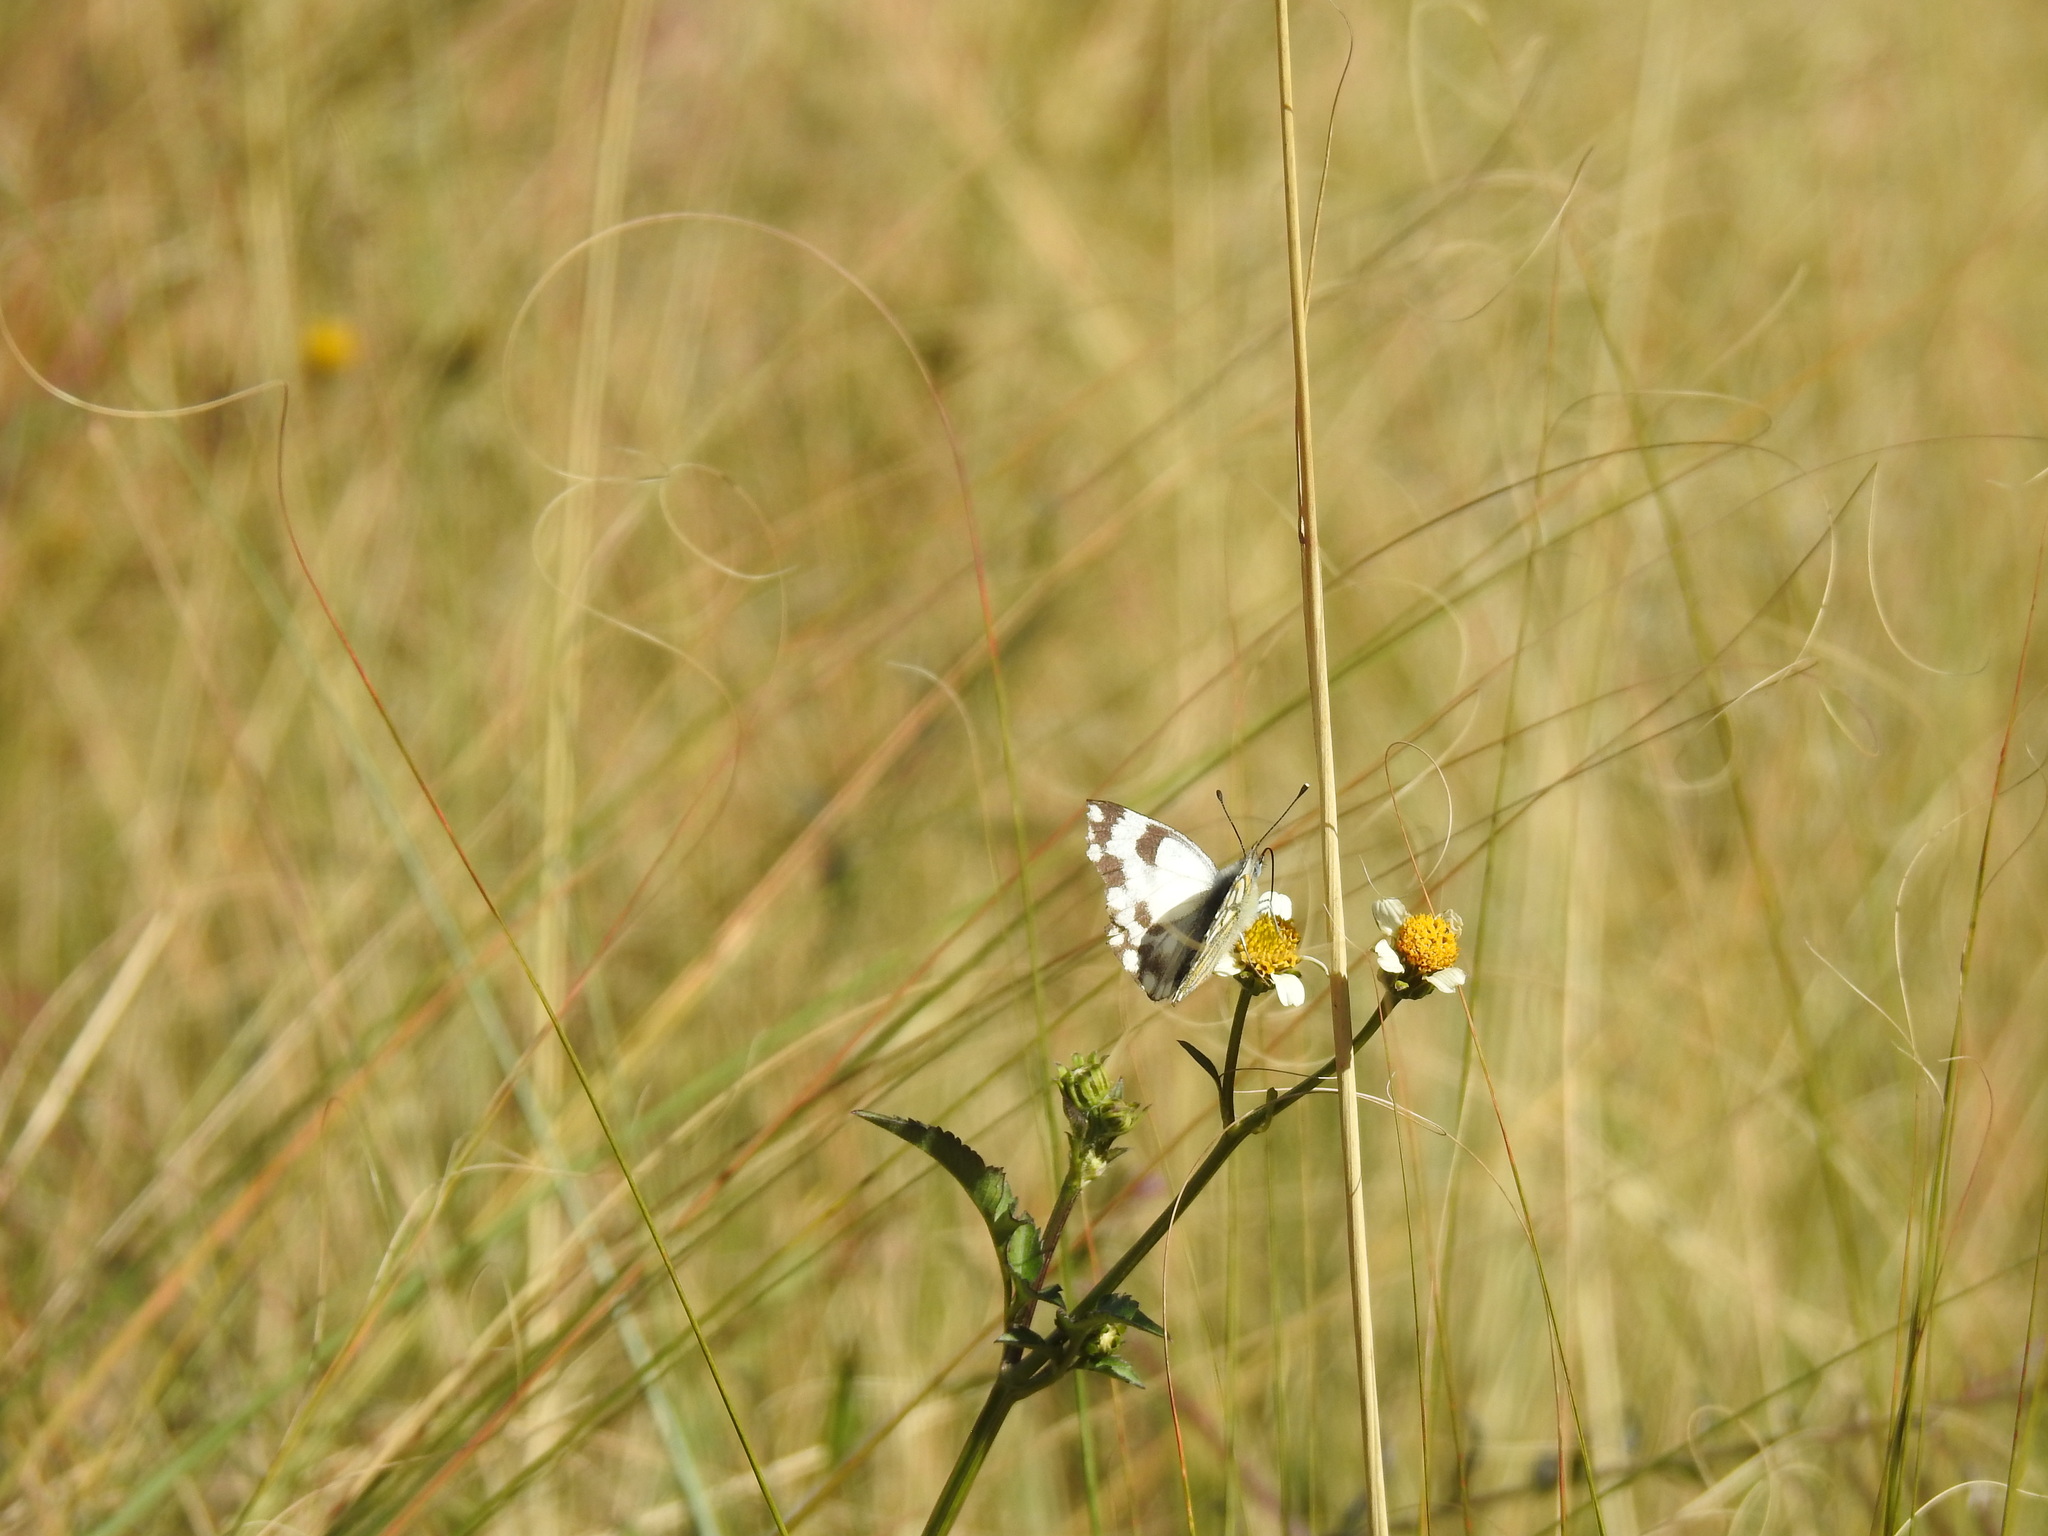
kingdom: Animalia
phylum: Arthropoda
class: Insecta
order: Lepidoptera
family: Pieridae
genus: Pontia
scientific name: Pontia helice
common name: Meadow white
